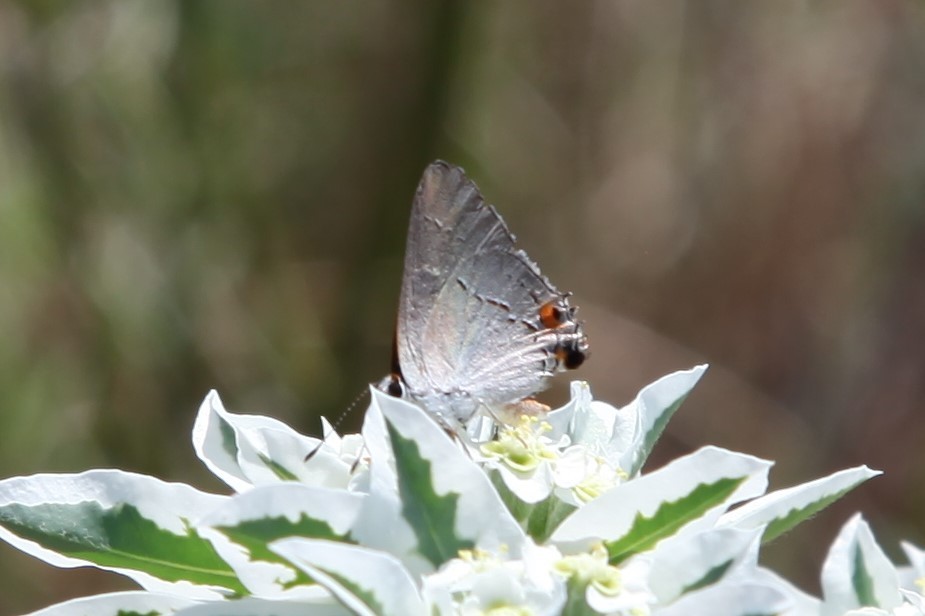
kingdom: Animalia
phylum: Arthropoda
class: Insecta
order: Lepidoptera
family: Lycaenidae
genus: Strymon
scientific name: Strymon melinus
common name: Gray hairstreak
